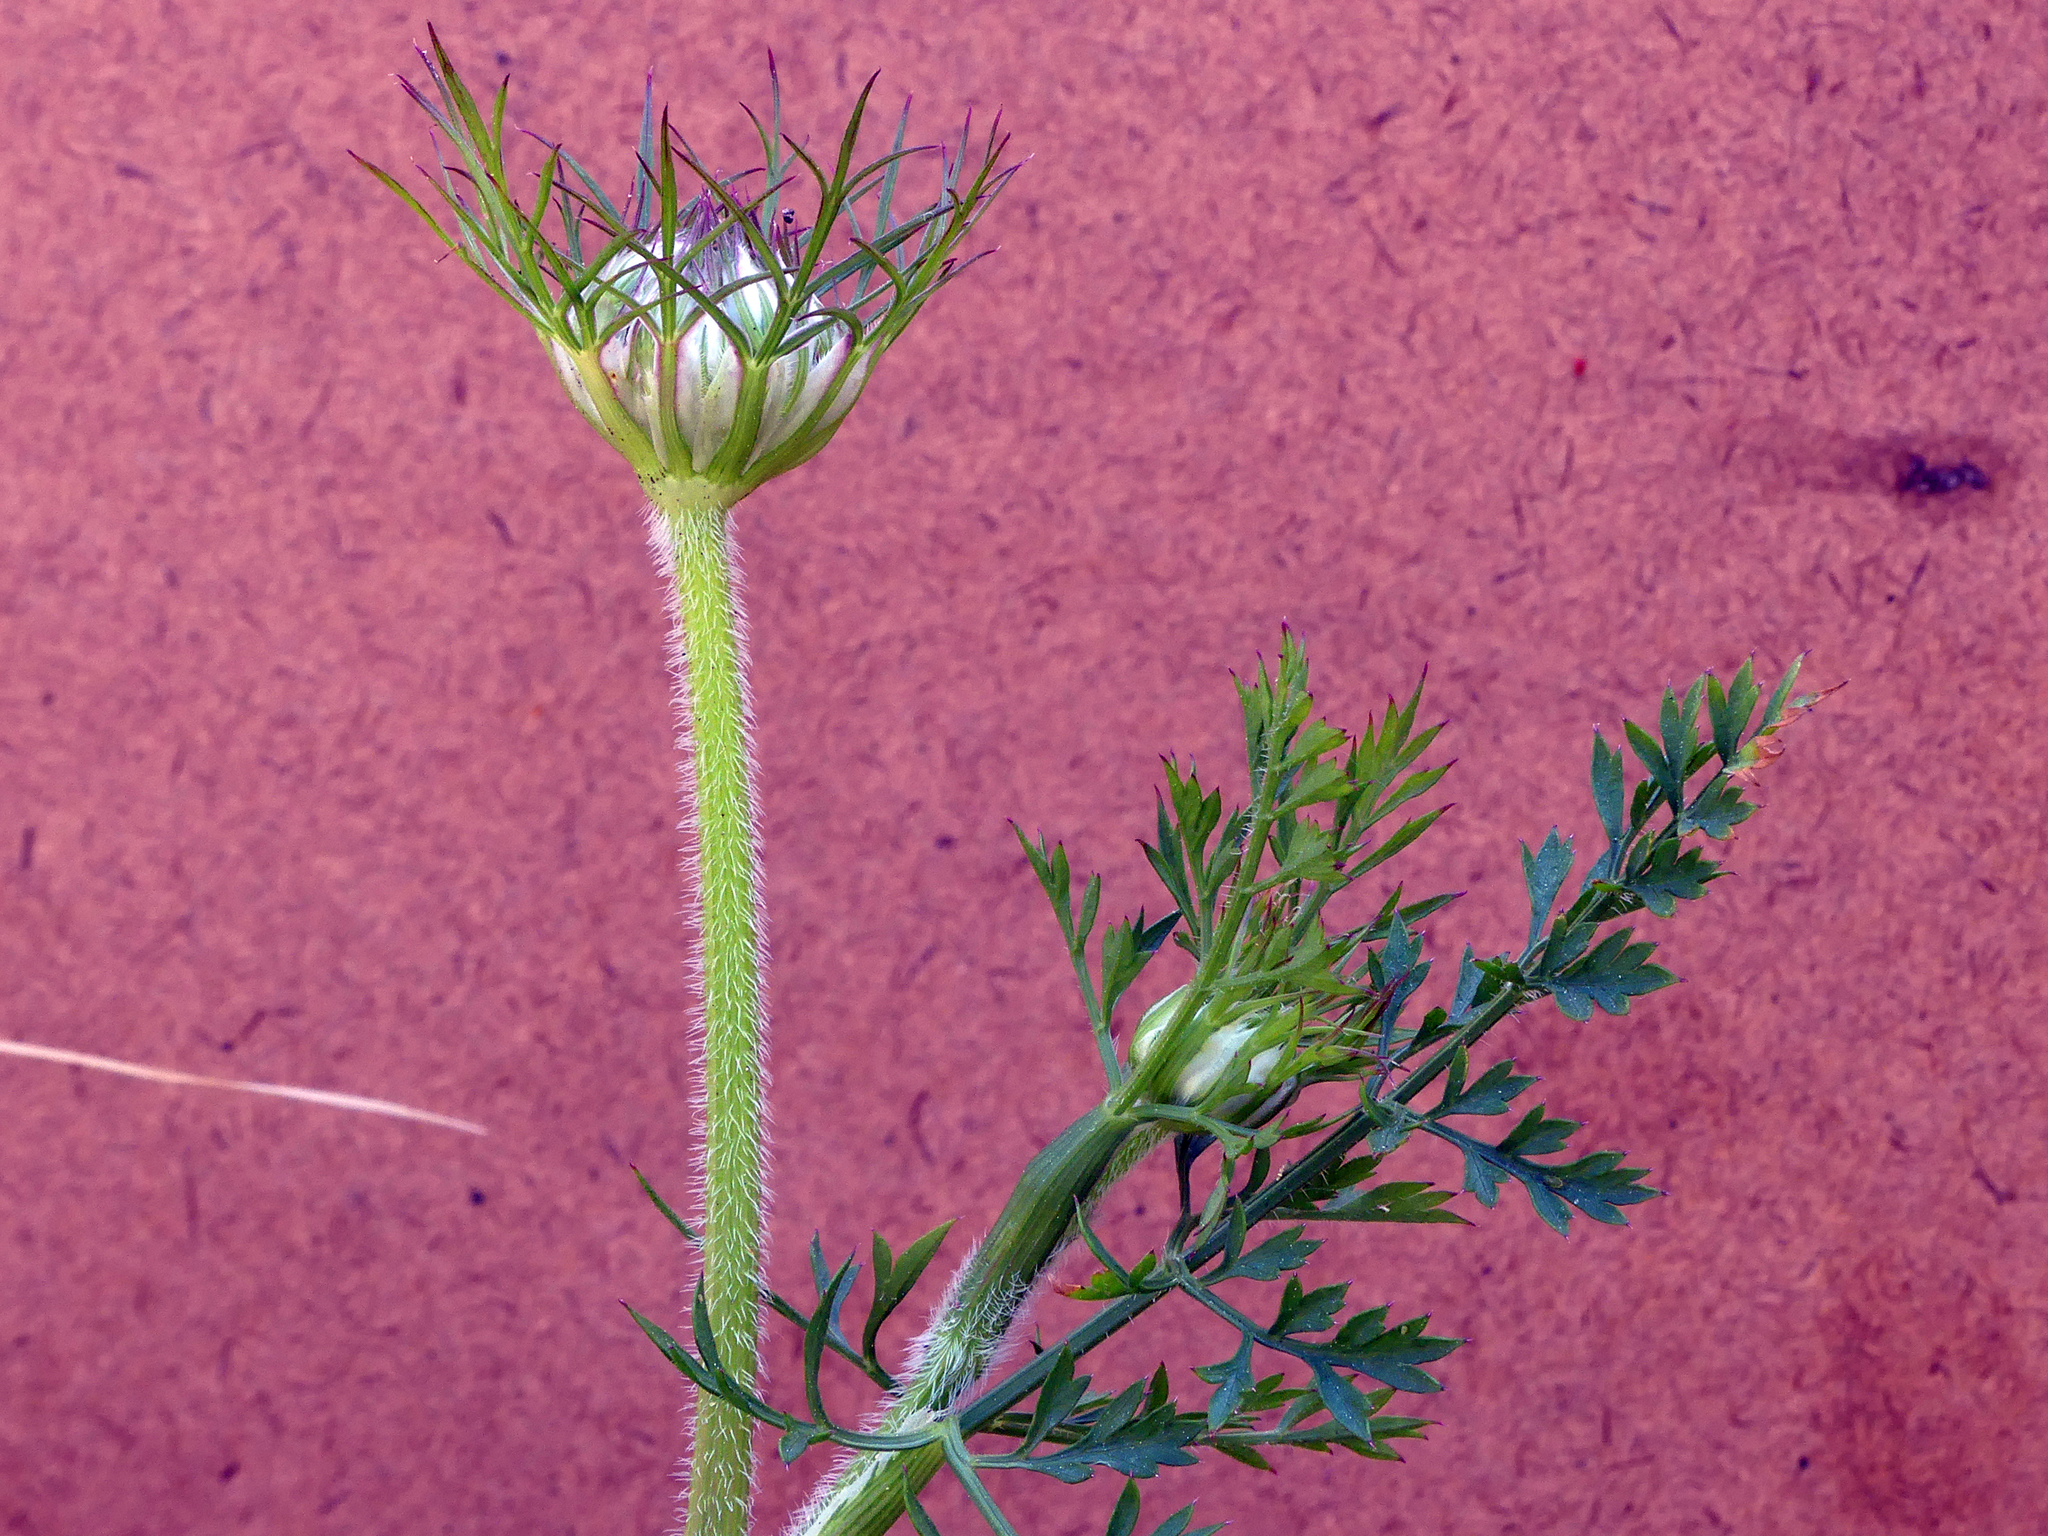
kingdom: Plantae
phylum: Tracheophyta
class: Magnoliopsida
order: Apiales
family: Apiaceae
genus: Daucus
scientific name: Daucus carota
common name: Wild carrot
